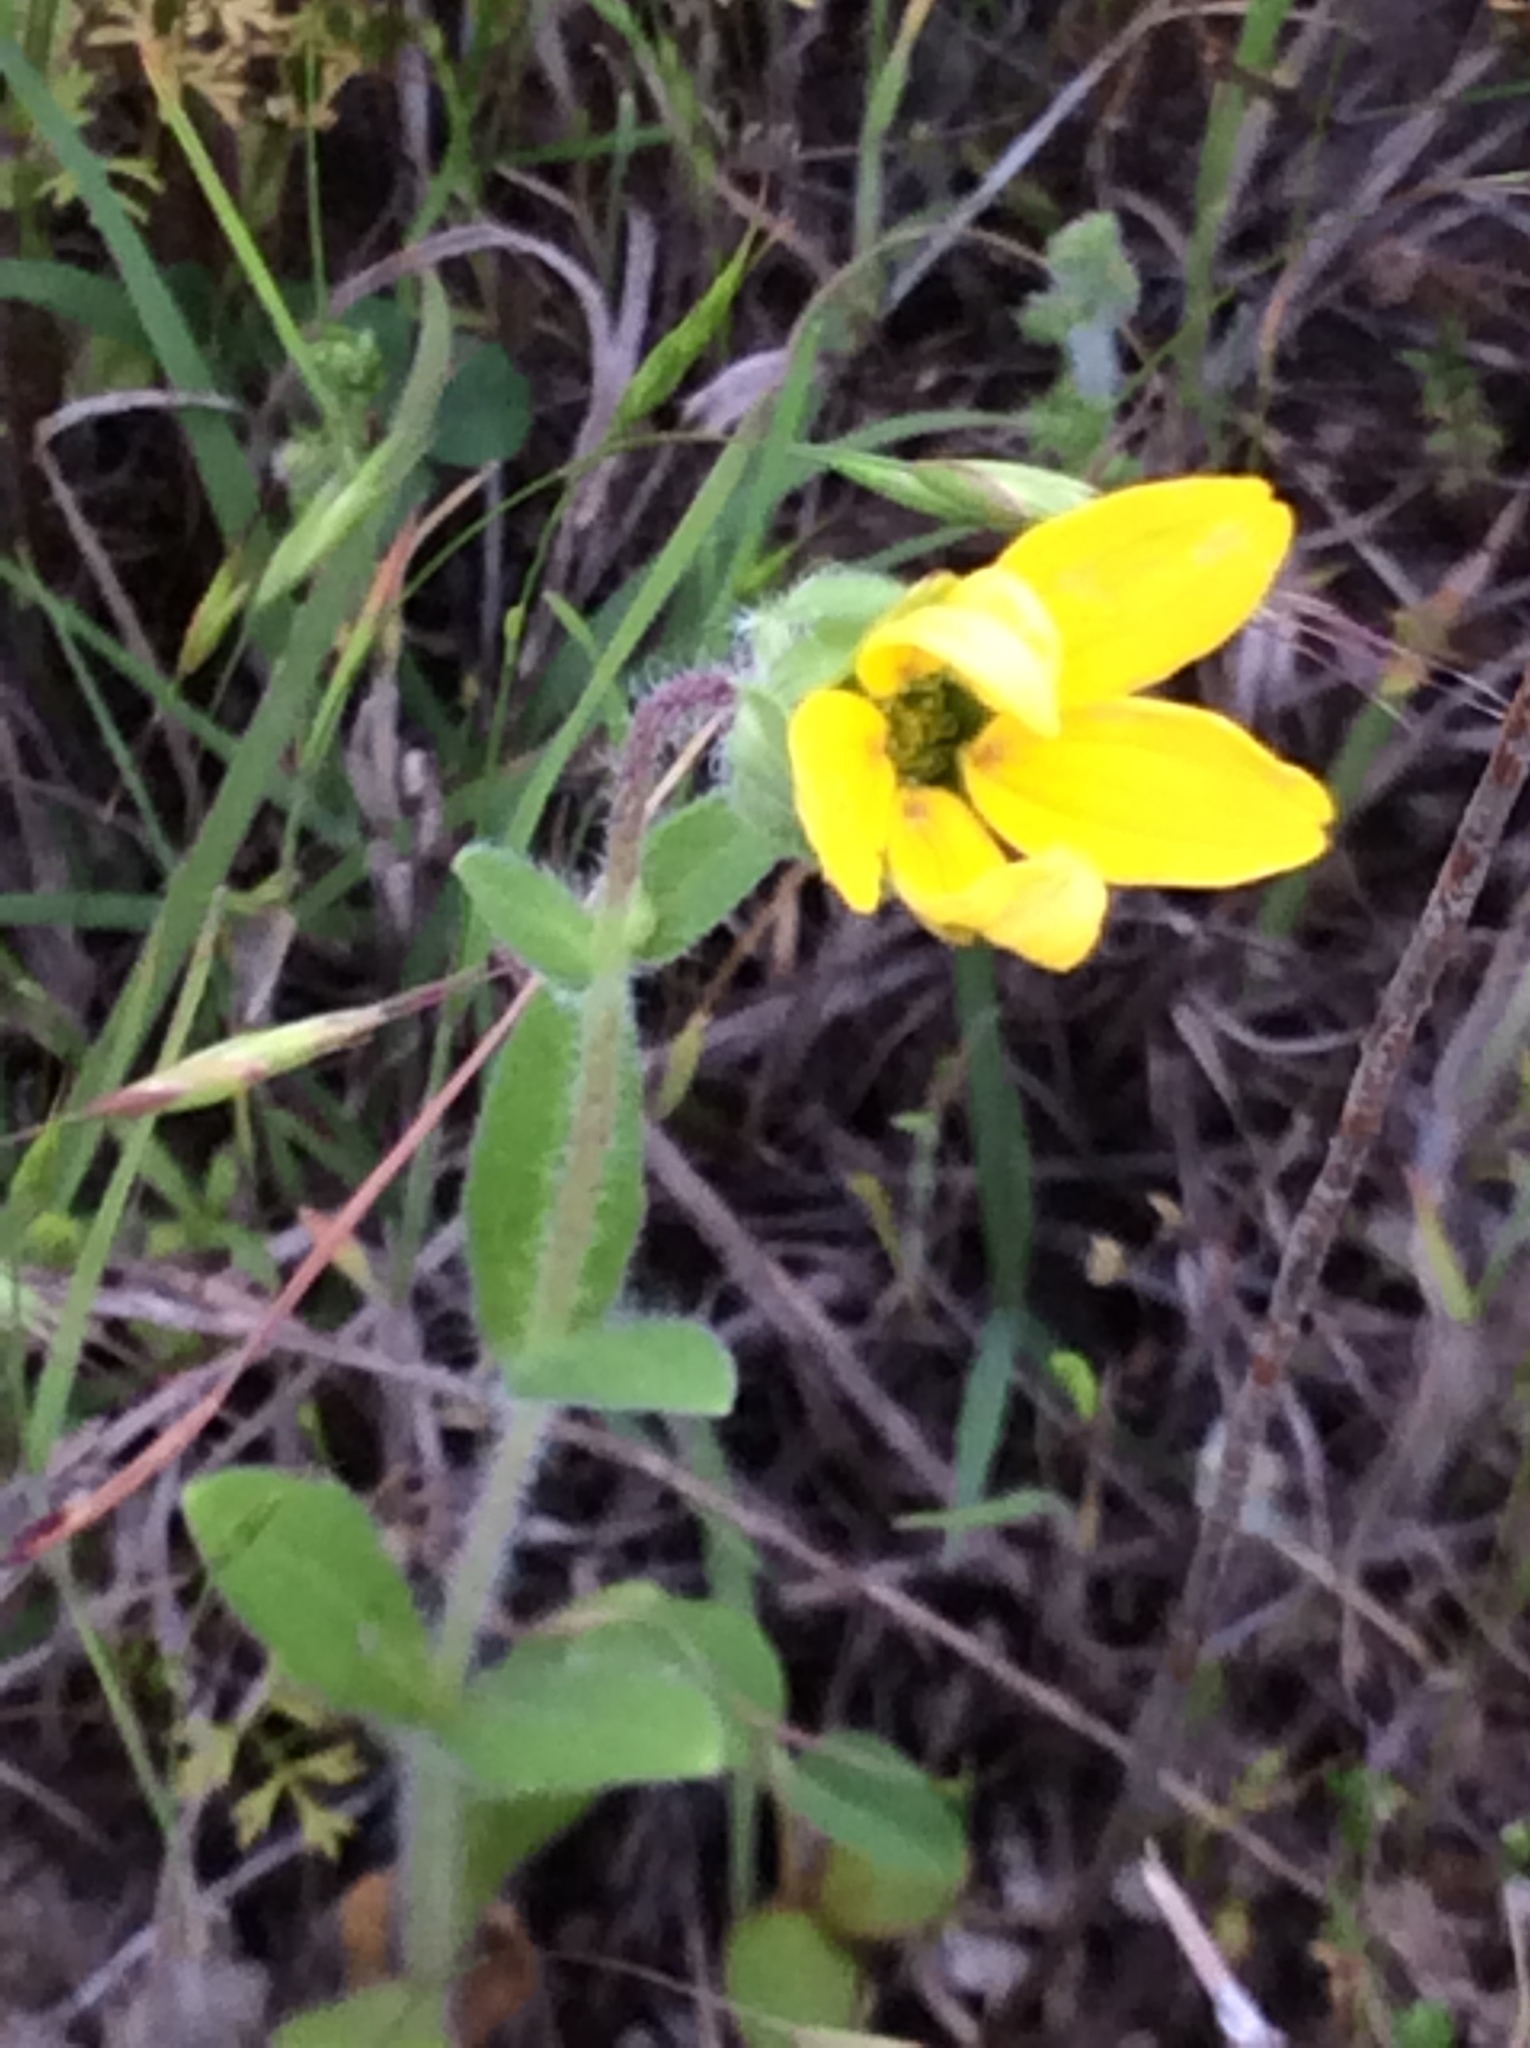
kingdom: Plantae
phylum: Tracheophyta
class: Magnoliopsida
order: Asterales
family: Asteraceae
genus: Lindheimera
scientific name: Lindheimera texana
